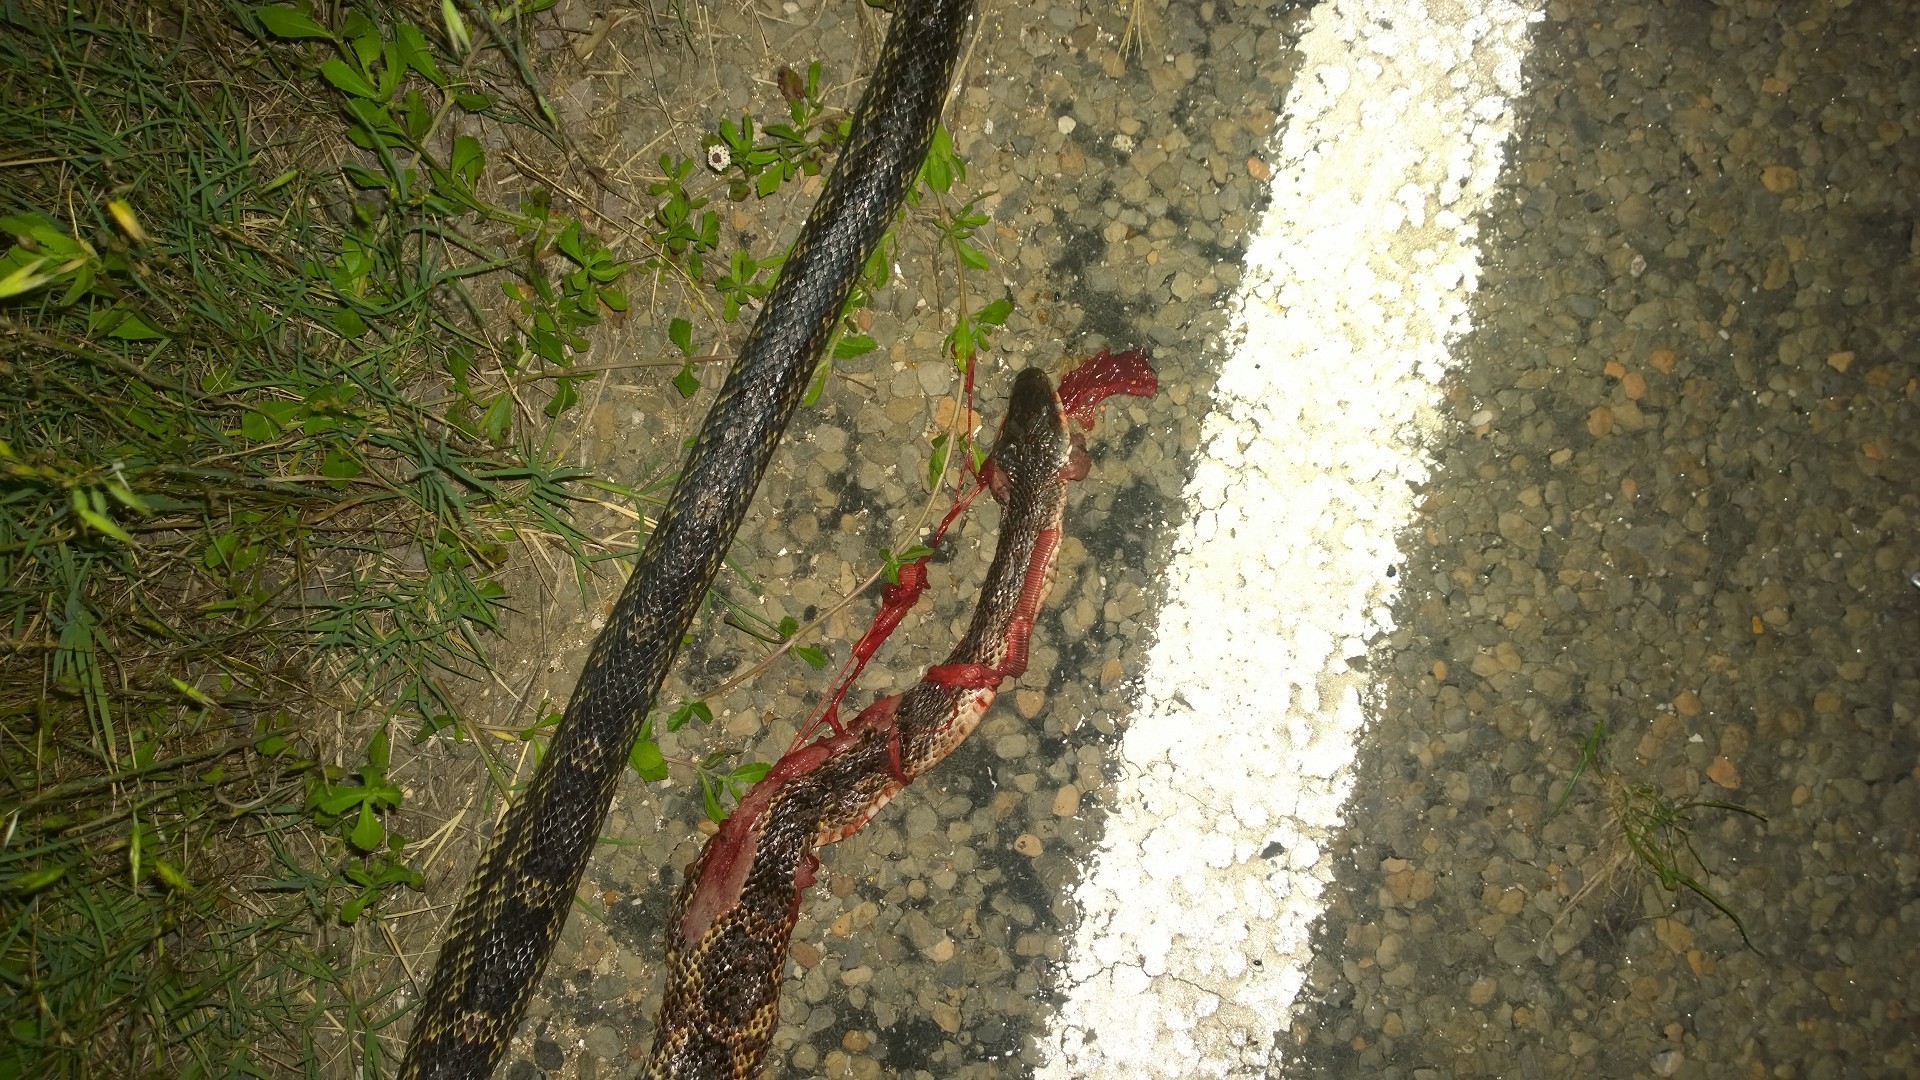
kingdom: Animalia
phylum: Chordata
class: Squamata
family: Colubridae
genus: Pantherophis
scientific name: Pantherophis obsoletus
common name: Black rat snake
